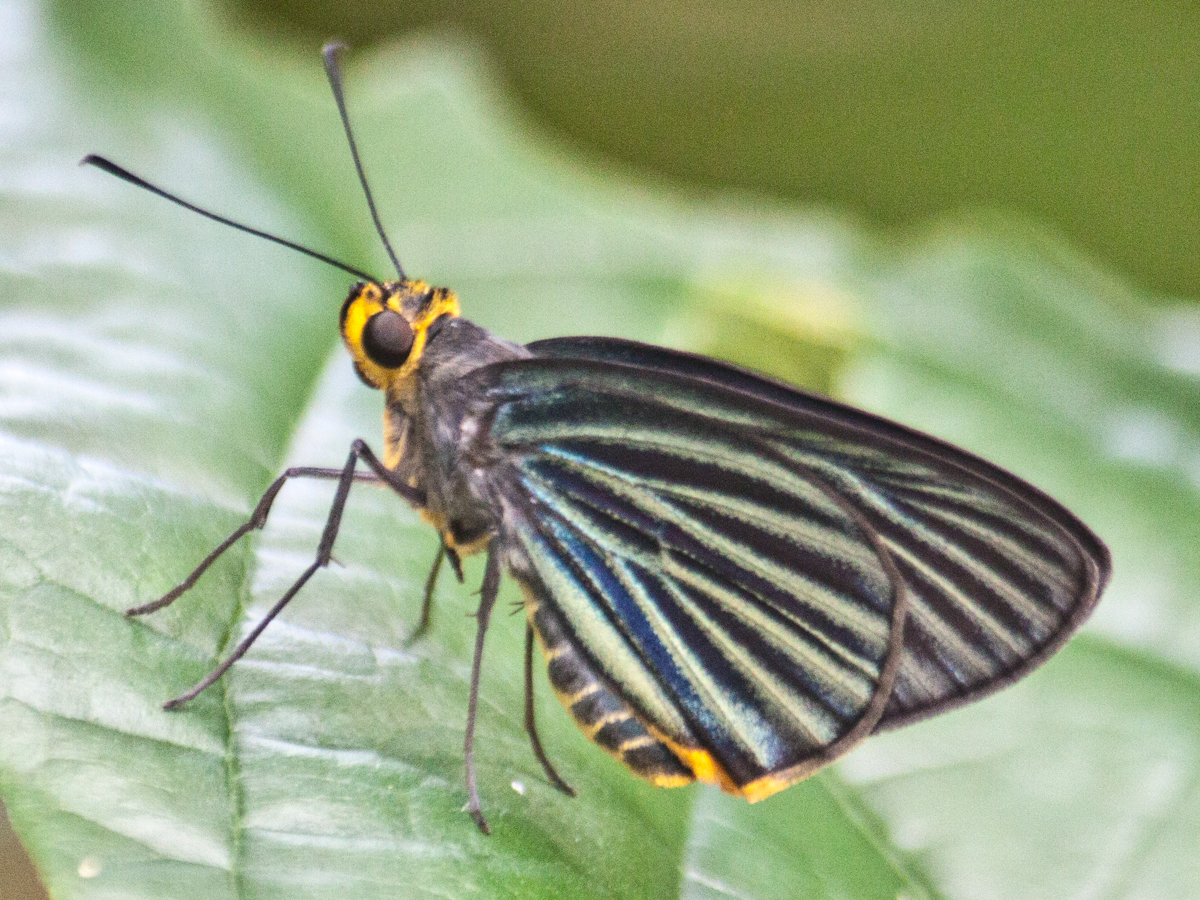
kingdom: Animalia
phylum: Arthropoda
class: Insecta
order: Lepidoptera
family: Hesperiidae
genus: Pirdana
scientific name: Pirdana hyela
